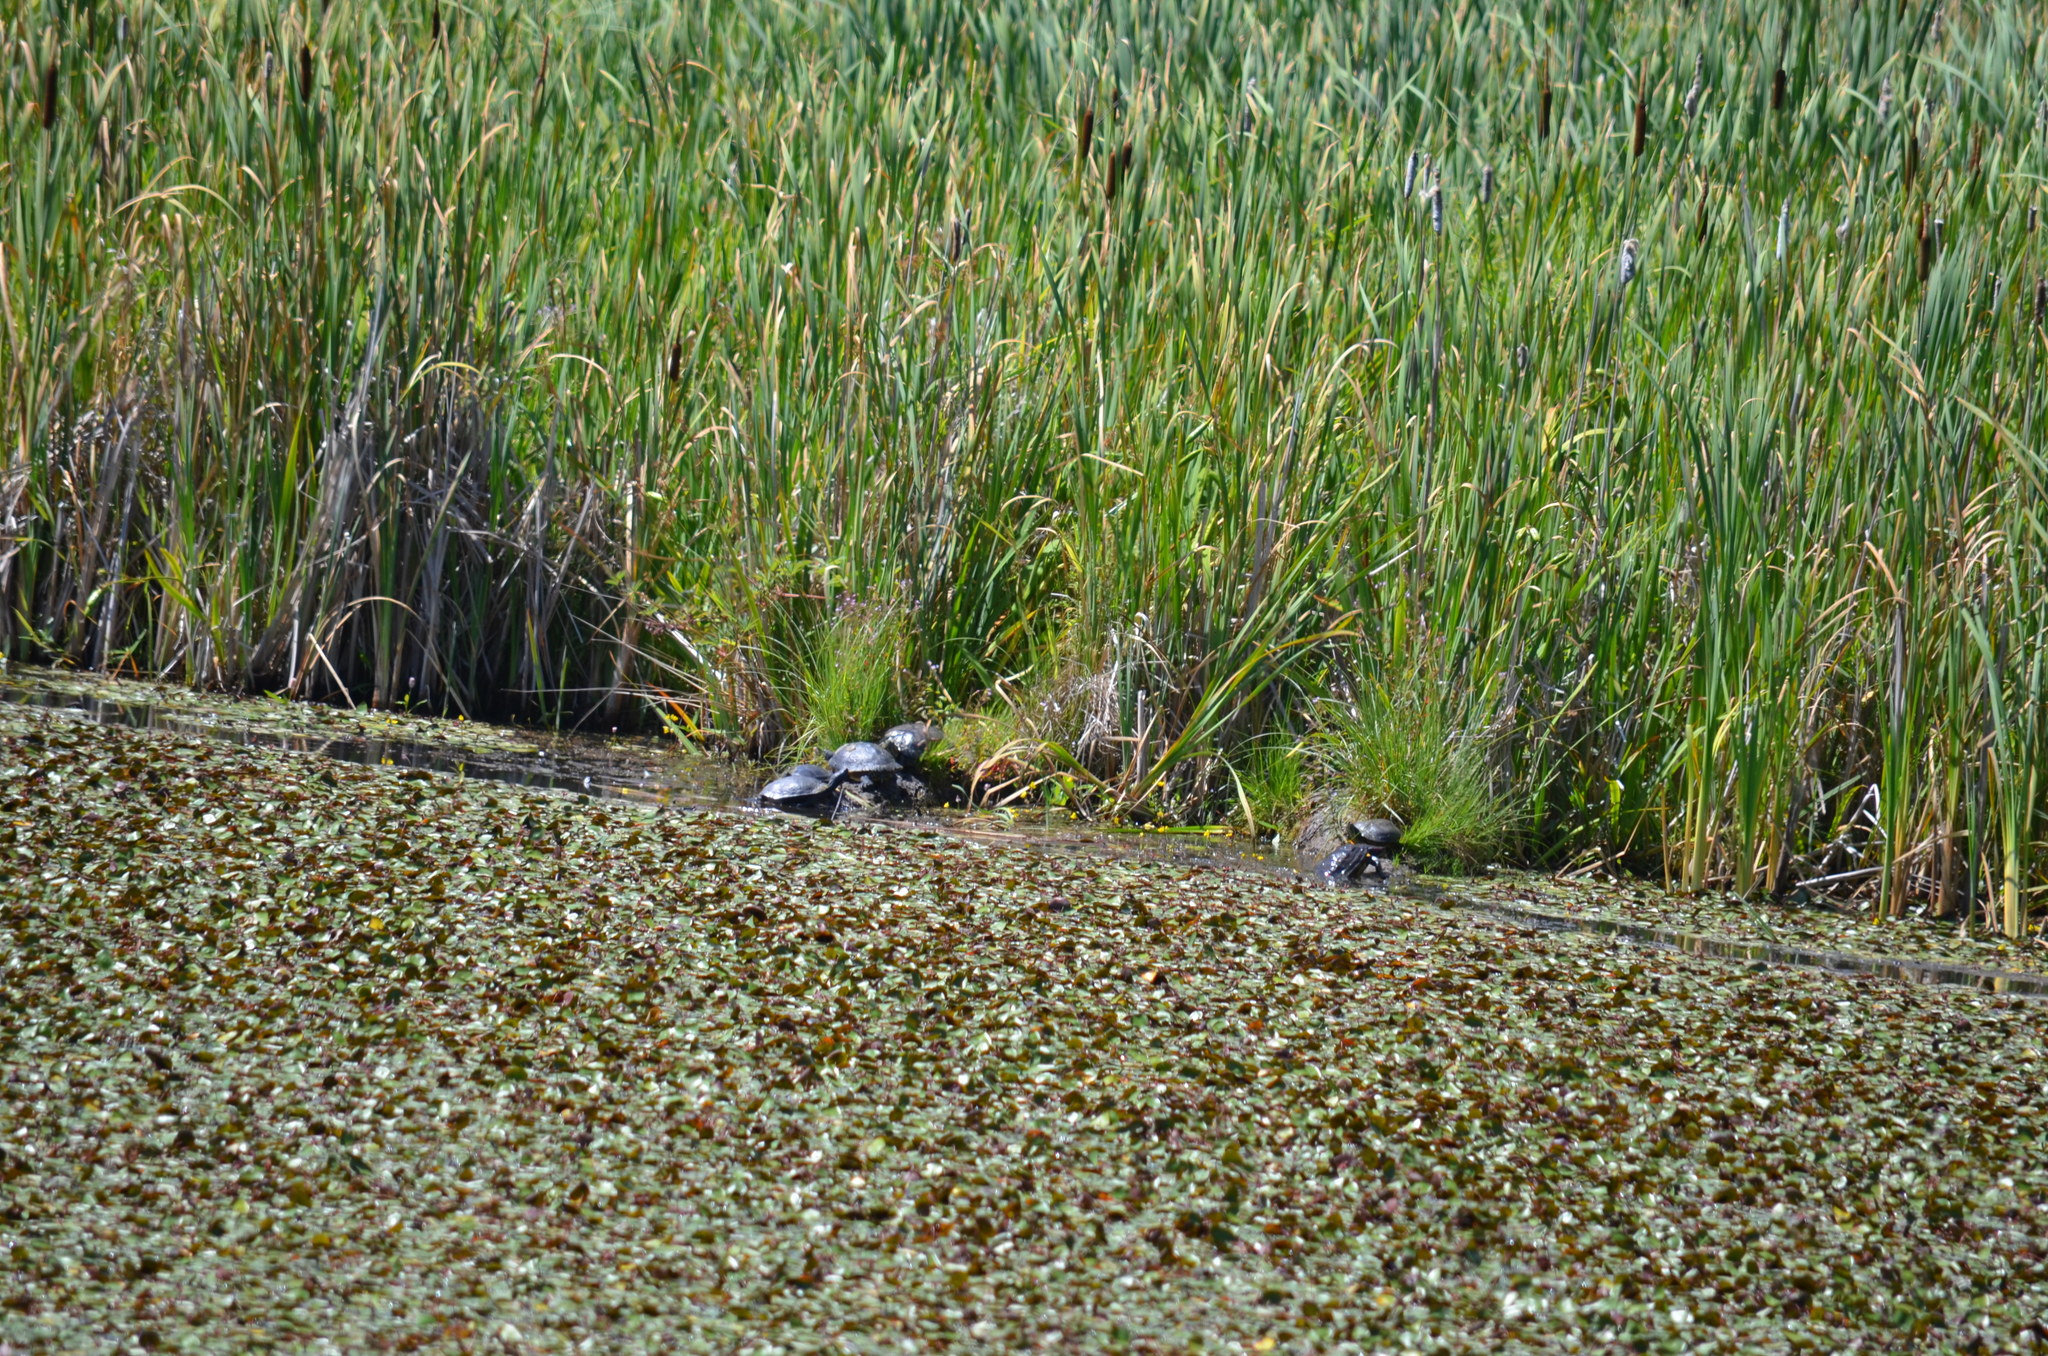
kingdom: Animalia
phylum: Chordata
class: Testudines
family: Emydidae
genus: Chrysemys
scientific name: Chrysemys picta
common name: Painted turtle
